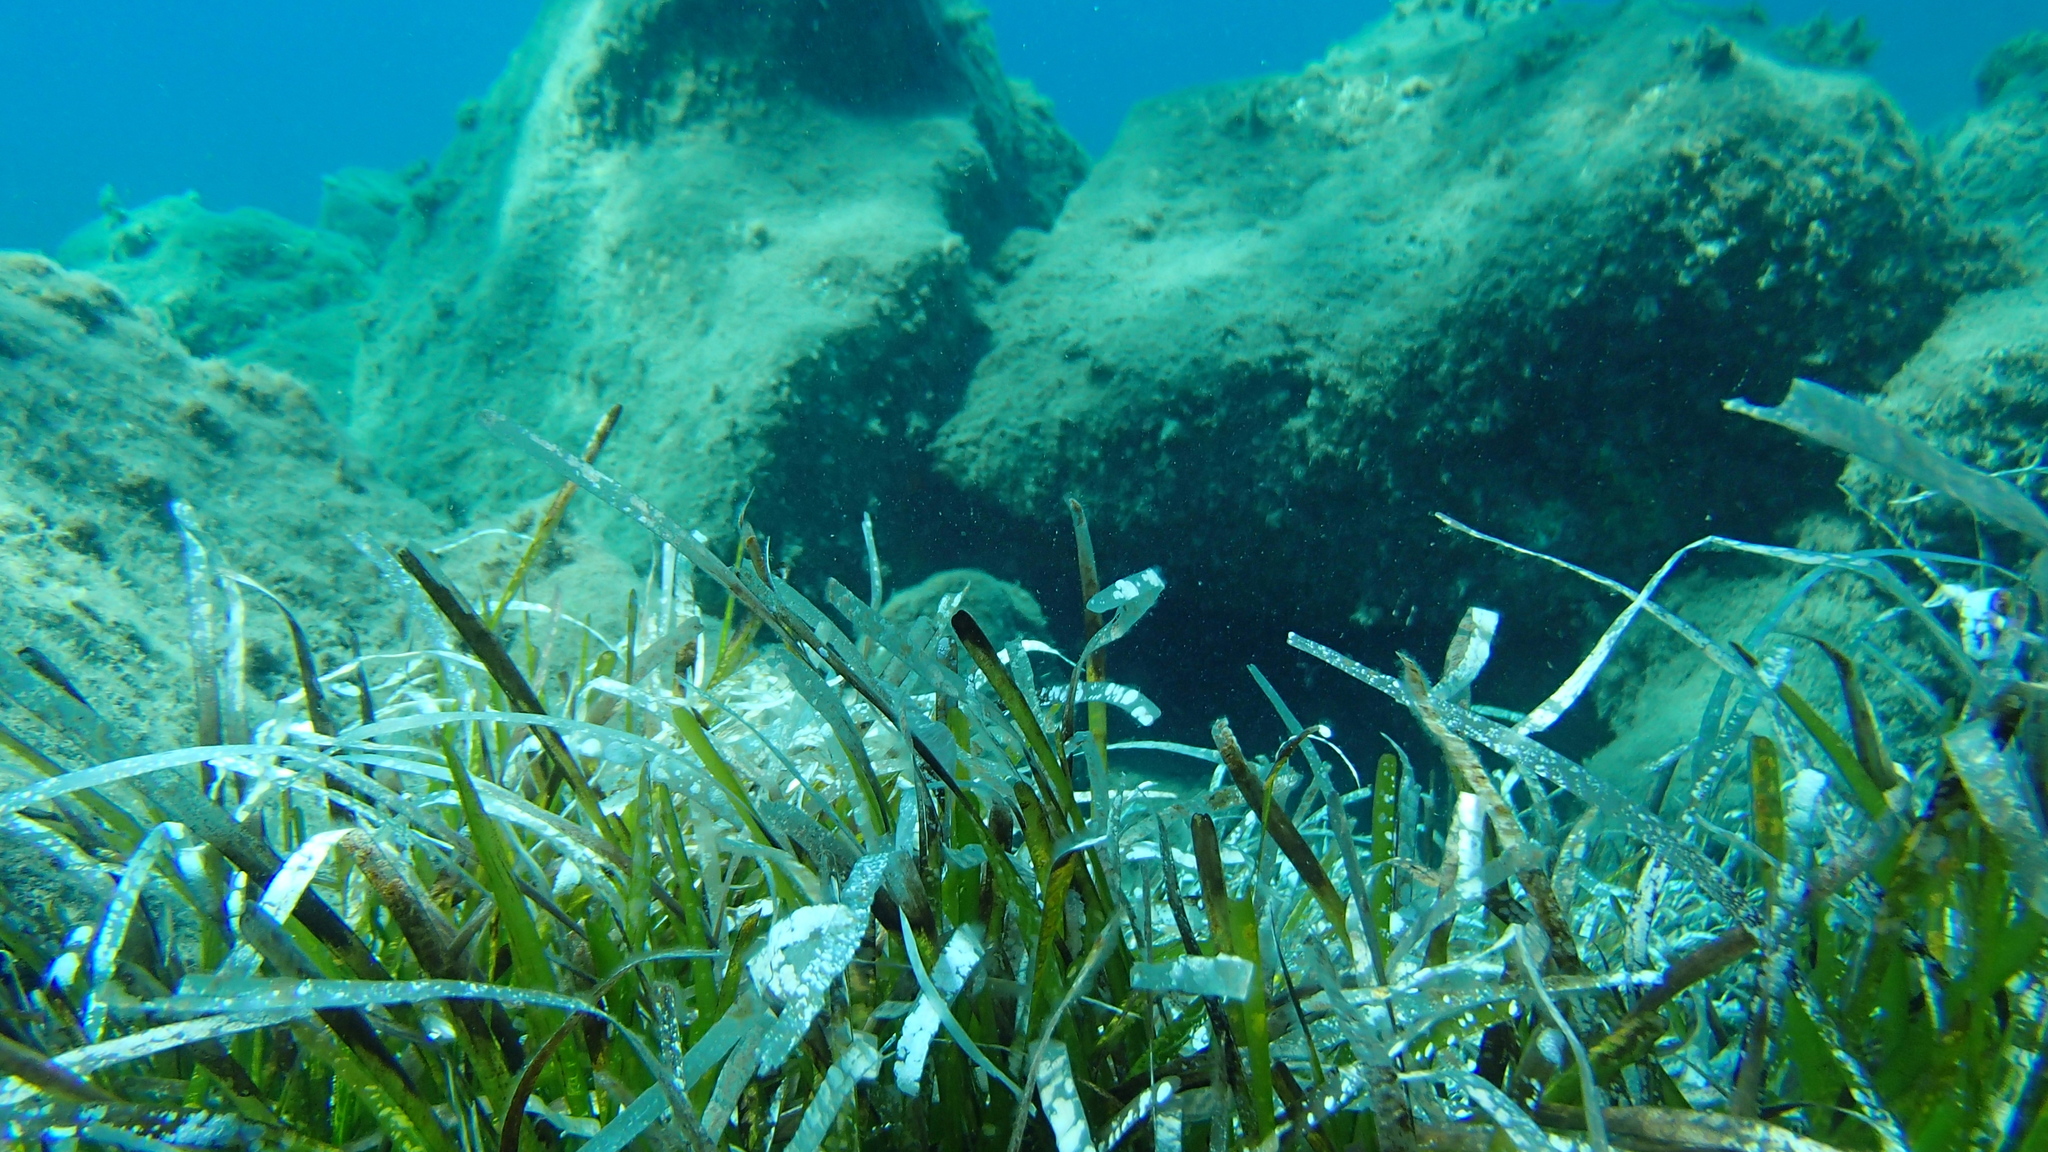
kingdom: Plantae
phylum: Tracheophyta
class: Liliopsida
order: Alismatales
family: Posidoniaceae
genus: Posidonia
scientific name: Posidonia oceanica
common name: Mediterranean tapeweed
